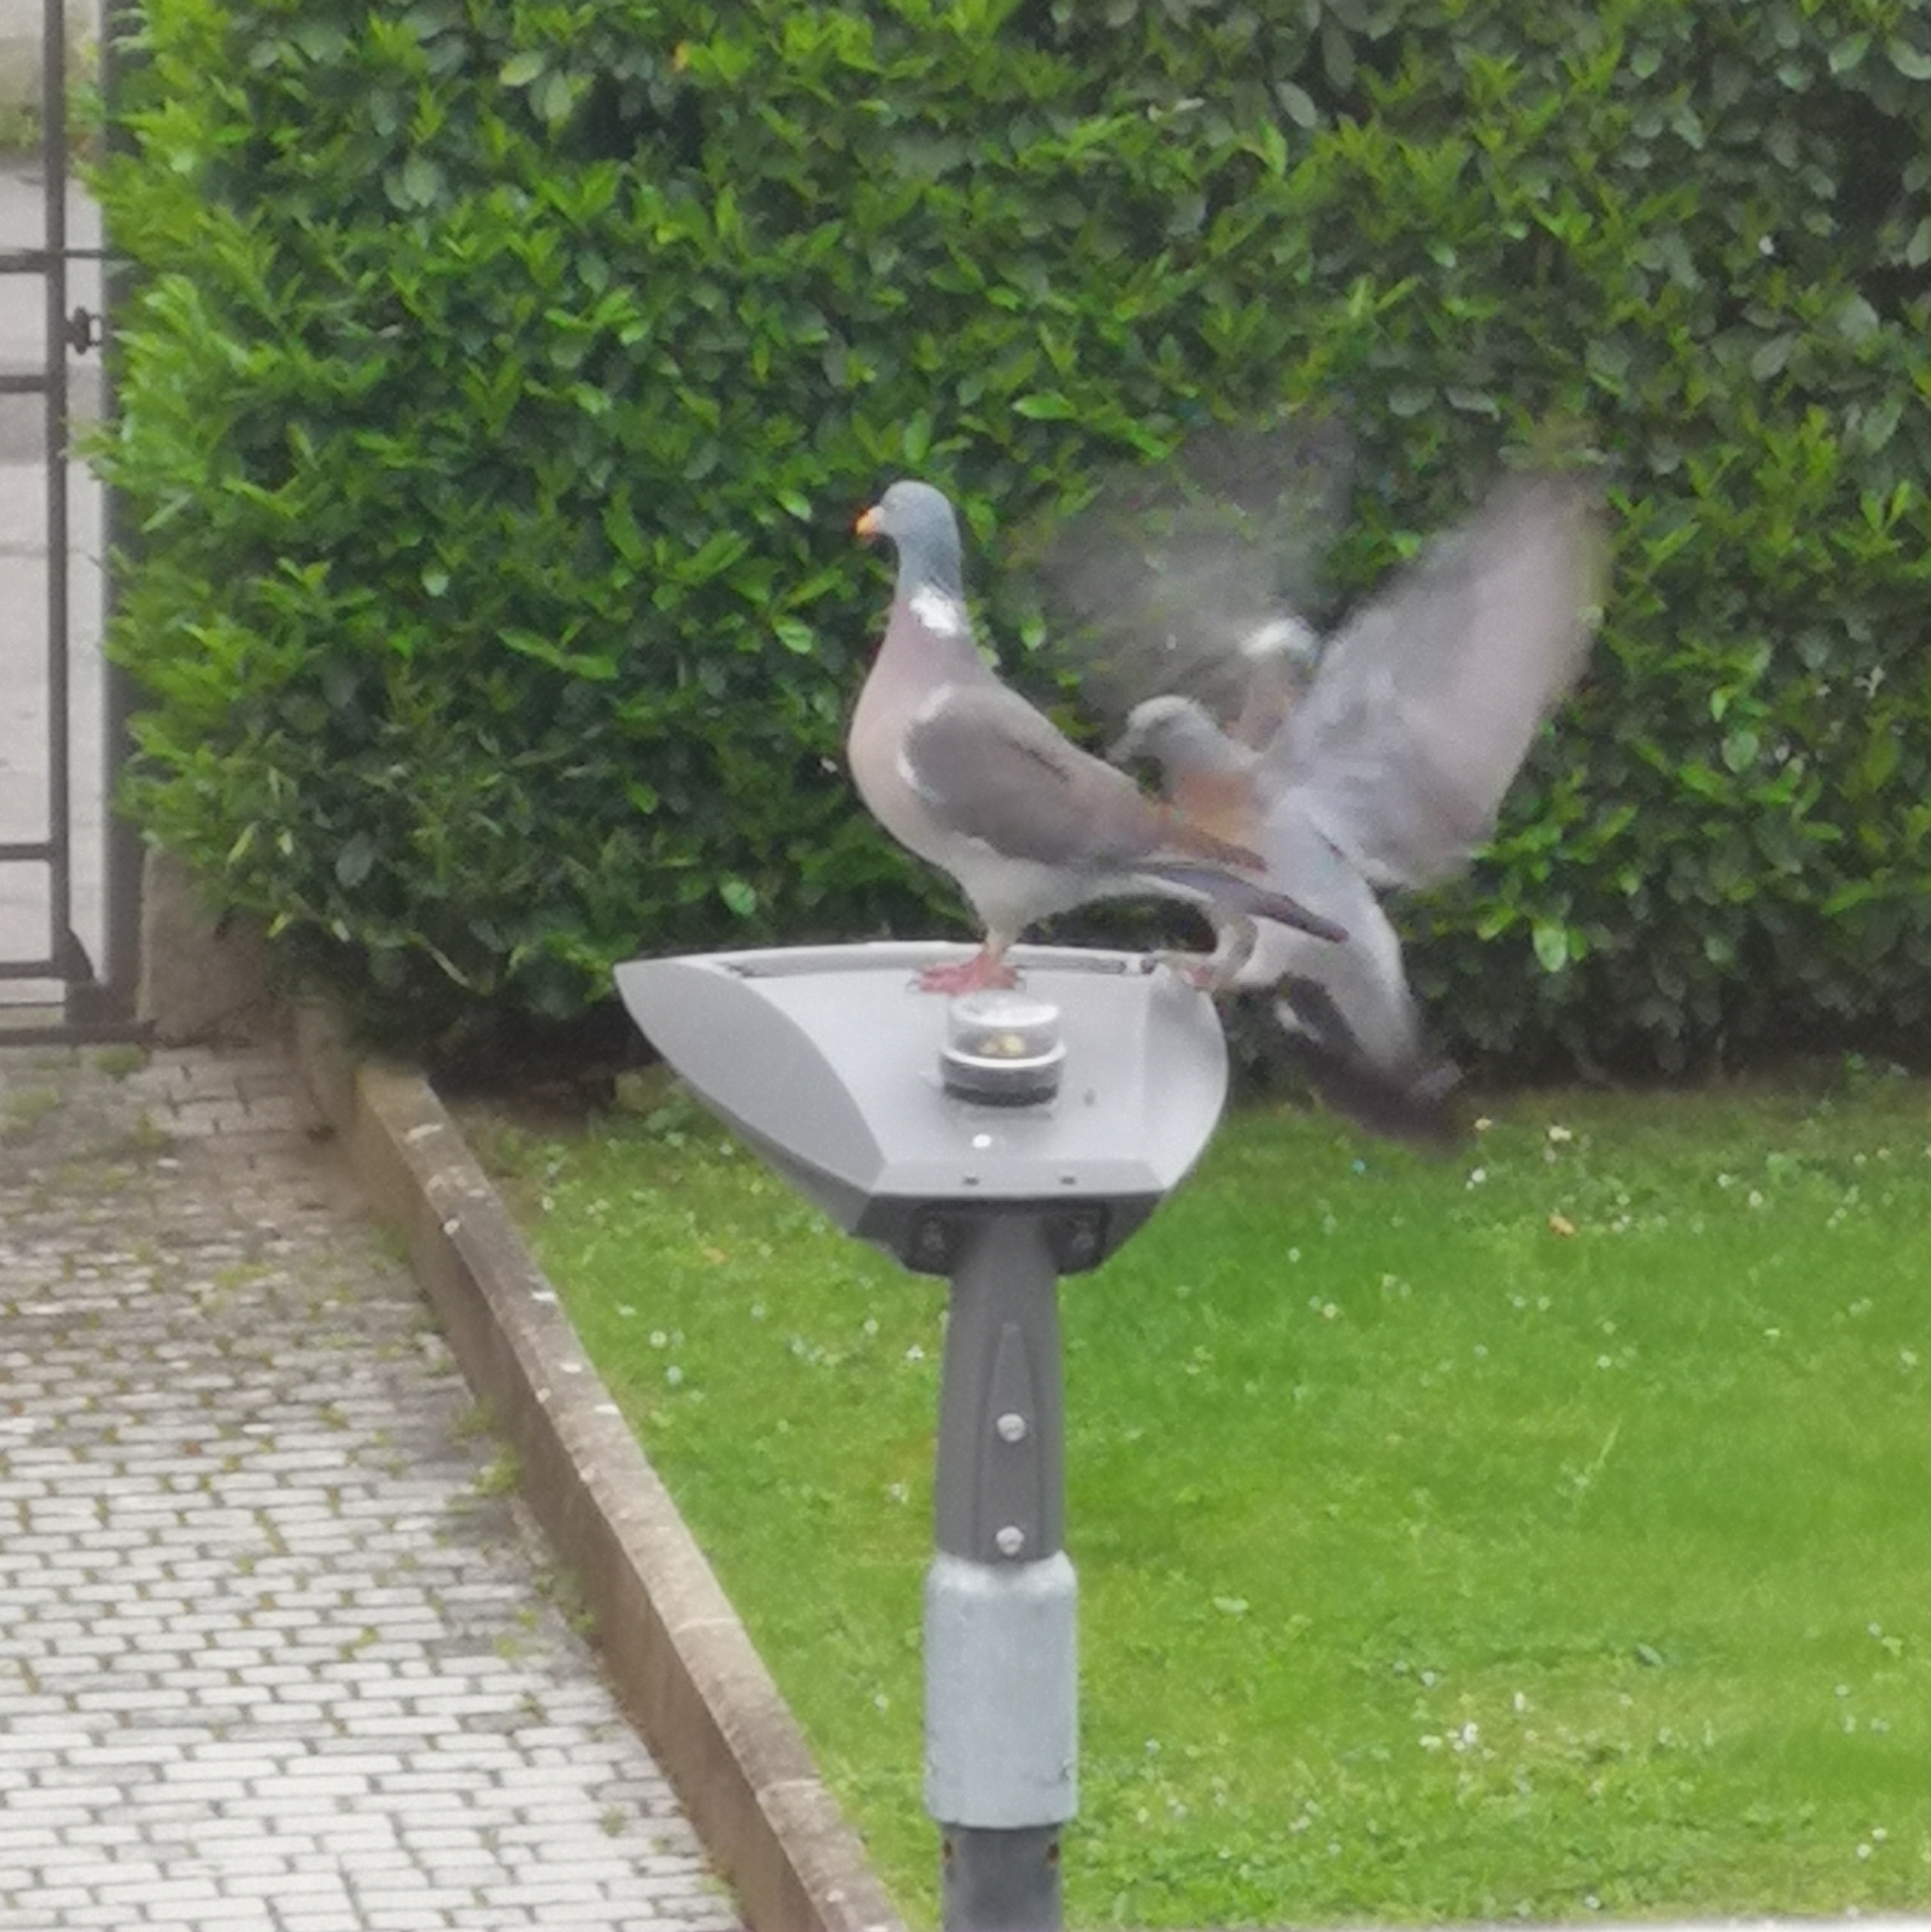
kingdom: Animalia
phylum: Chordata
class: Aves
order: Columbiformes
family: Columbidae
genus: Columba
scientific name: Columba palumbus
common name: Common wood pigeon
